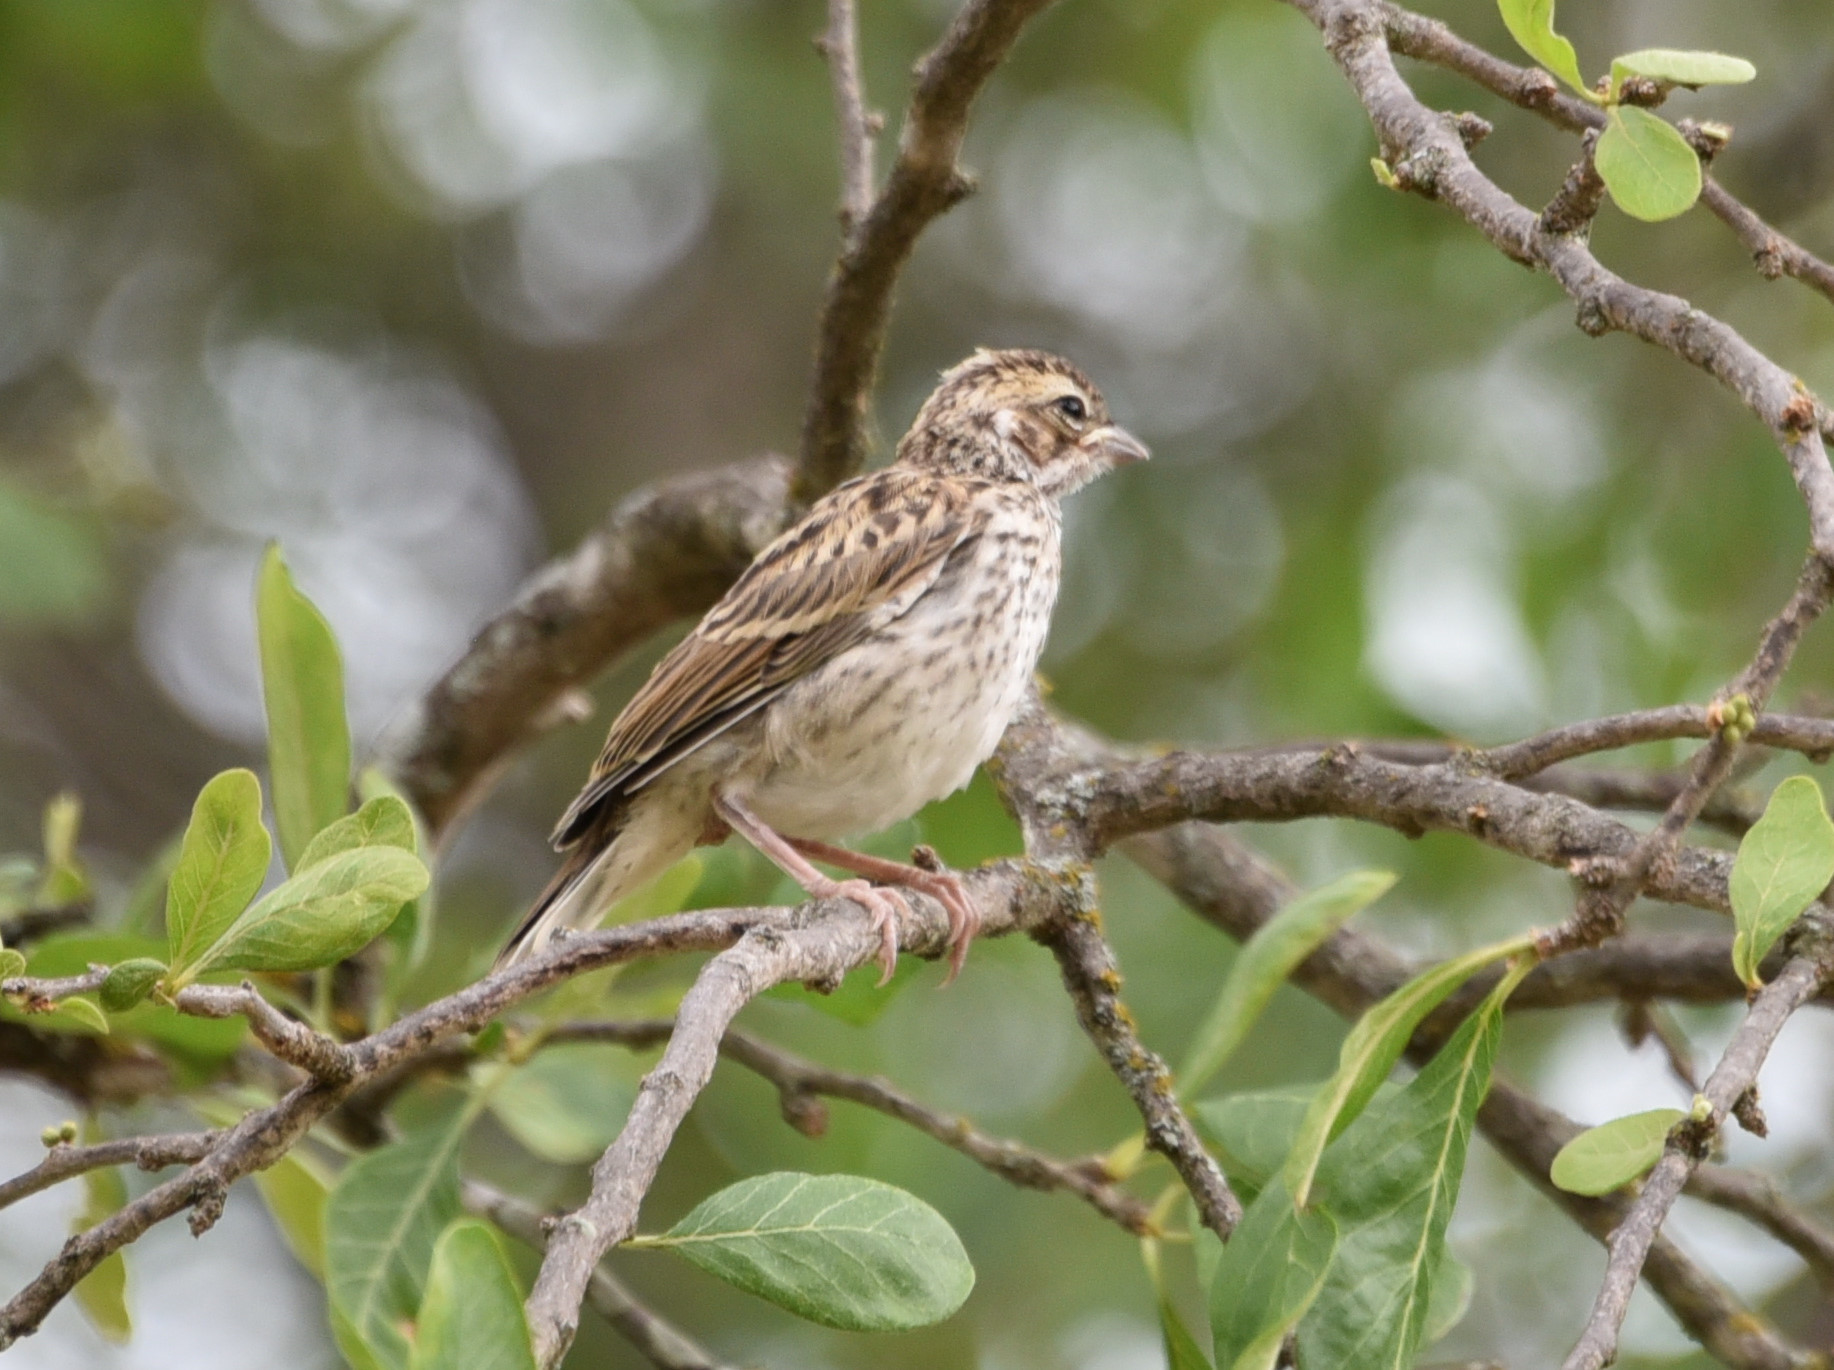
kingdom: Animalia
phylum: Chordata
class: Aves
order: Passeriformes
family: Passerellidae
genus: Chondestes
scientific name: Chondestes grammacus
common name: Lark sparrow
